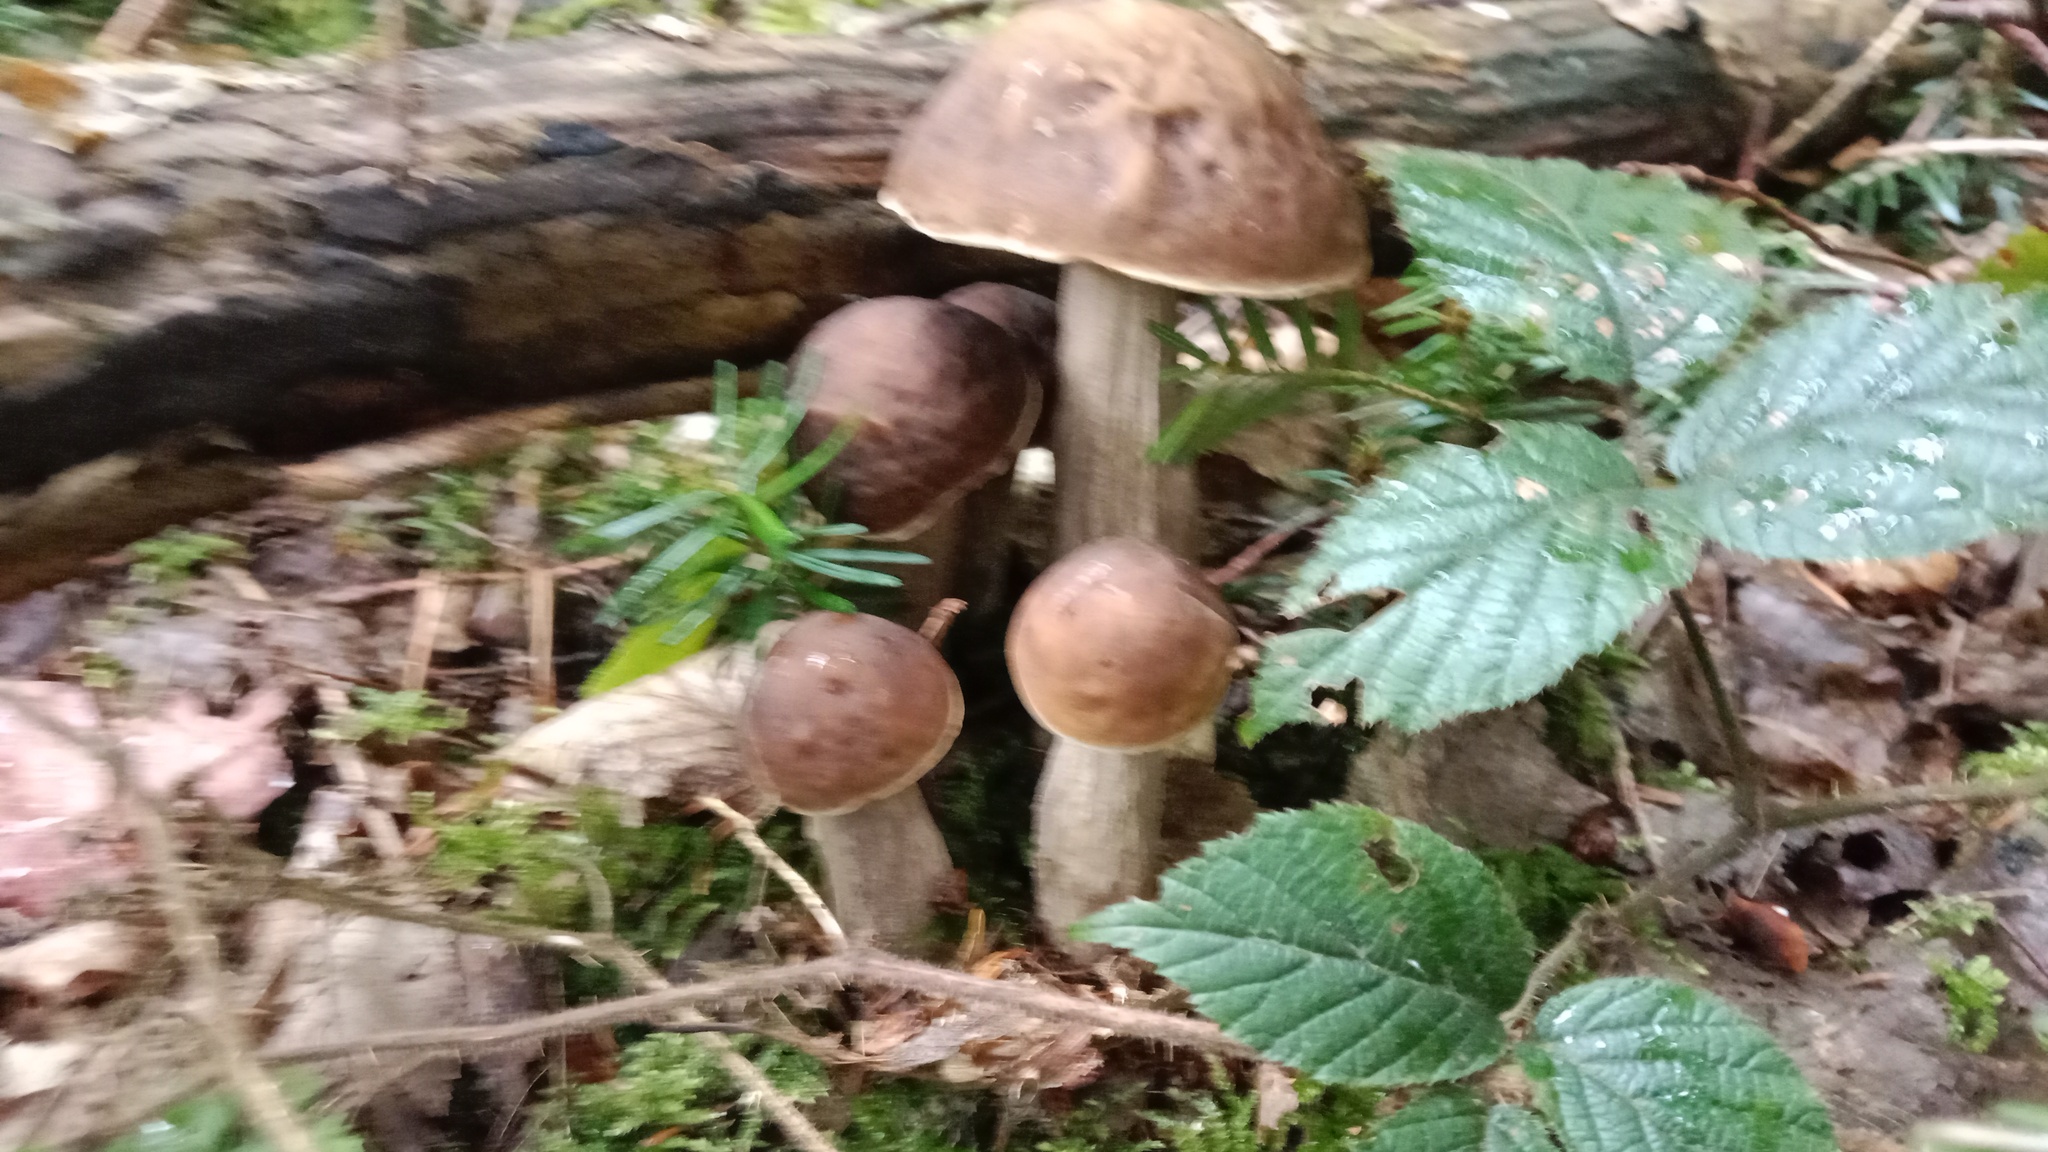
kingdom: Fungi
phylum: Basidiomycota
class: Agaricomycetes
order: Boletales
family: Boletaceae
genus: Leccinellum
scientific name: Leccinellum pseudoscabrum
